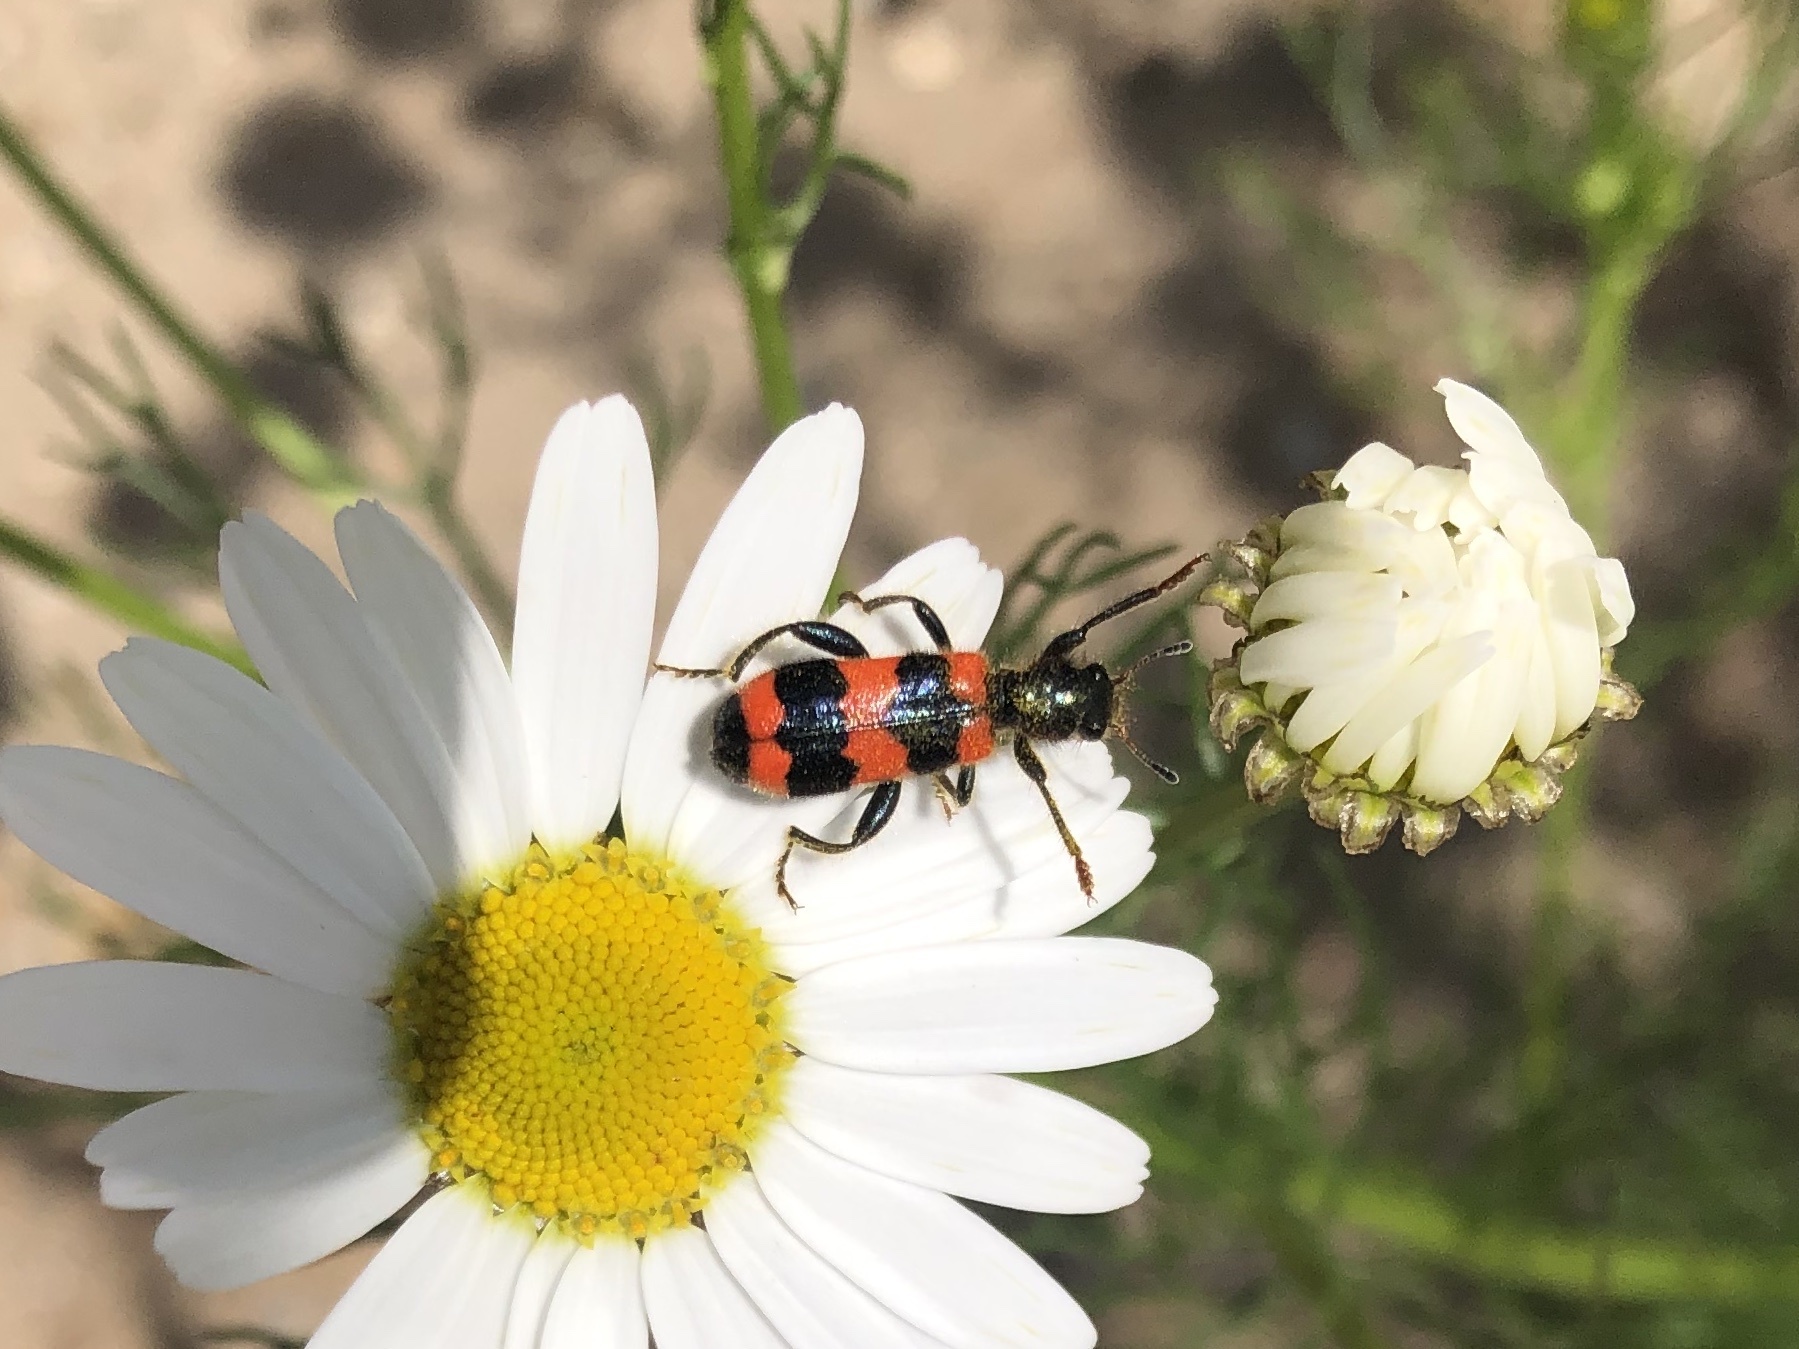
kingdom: Animalia
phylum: Arthropoda
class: Insecta
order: Coleoptera
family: Cleridae
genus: Trichodes
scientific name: Trichodes apiarius
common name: Bee-eating beetle
